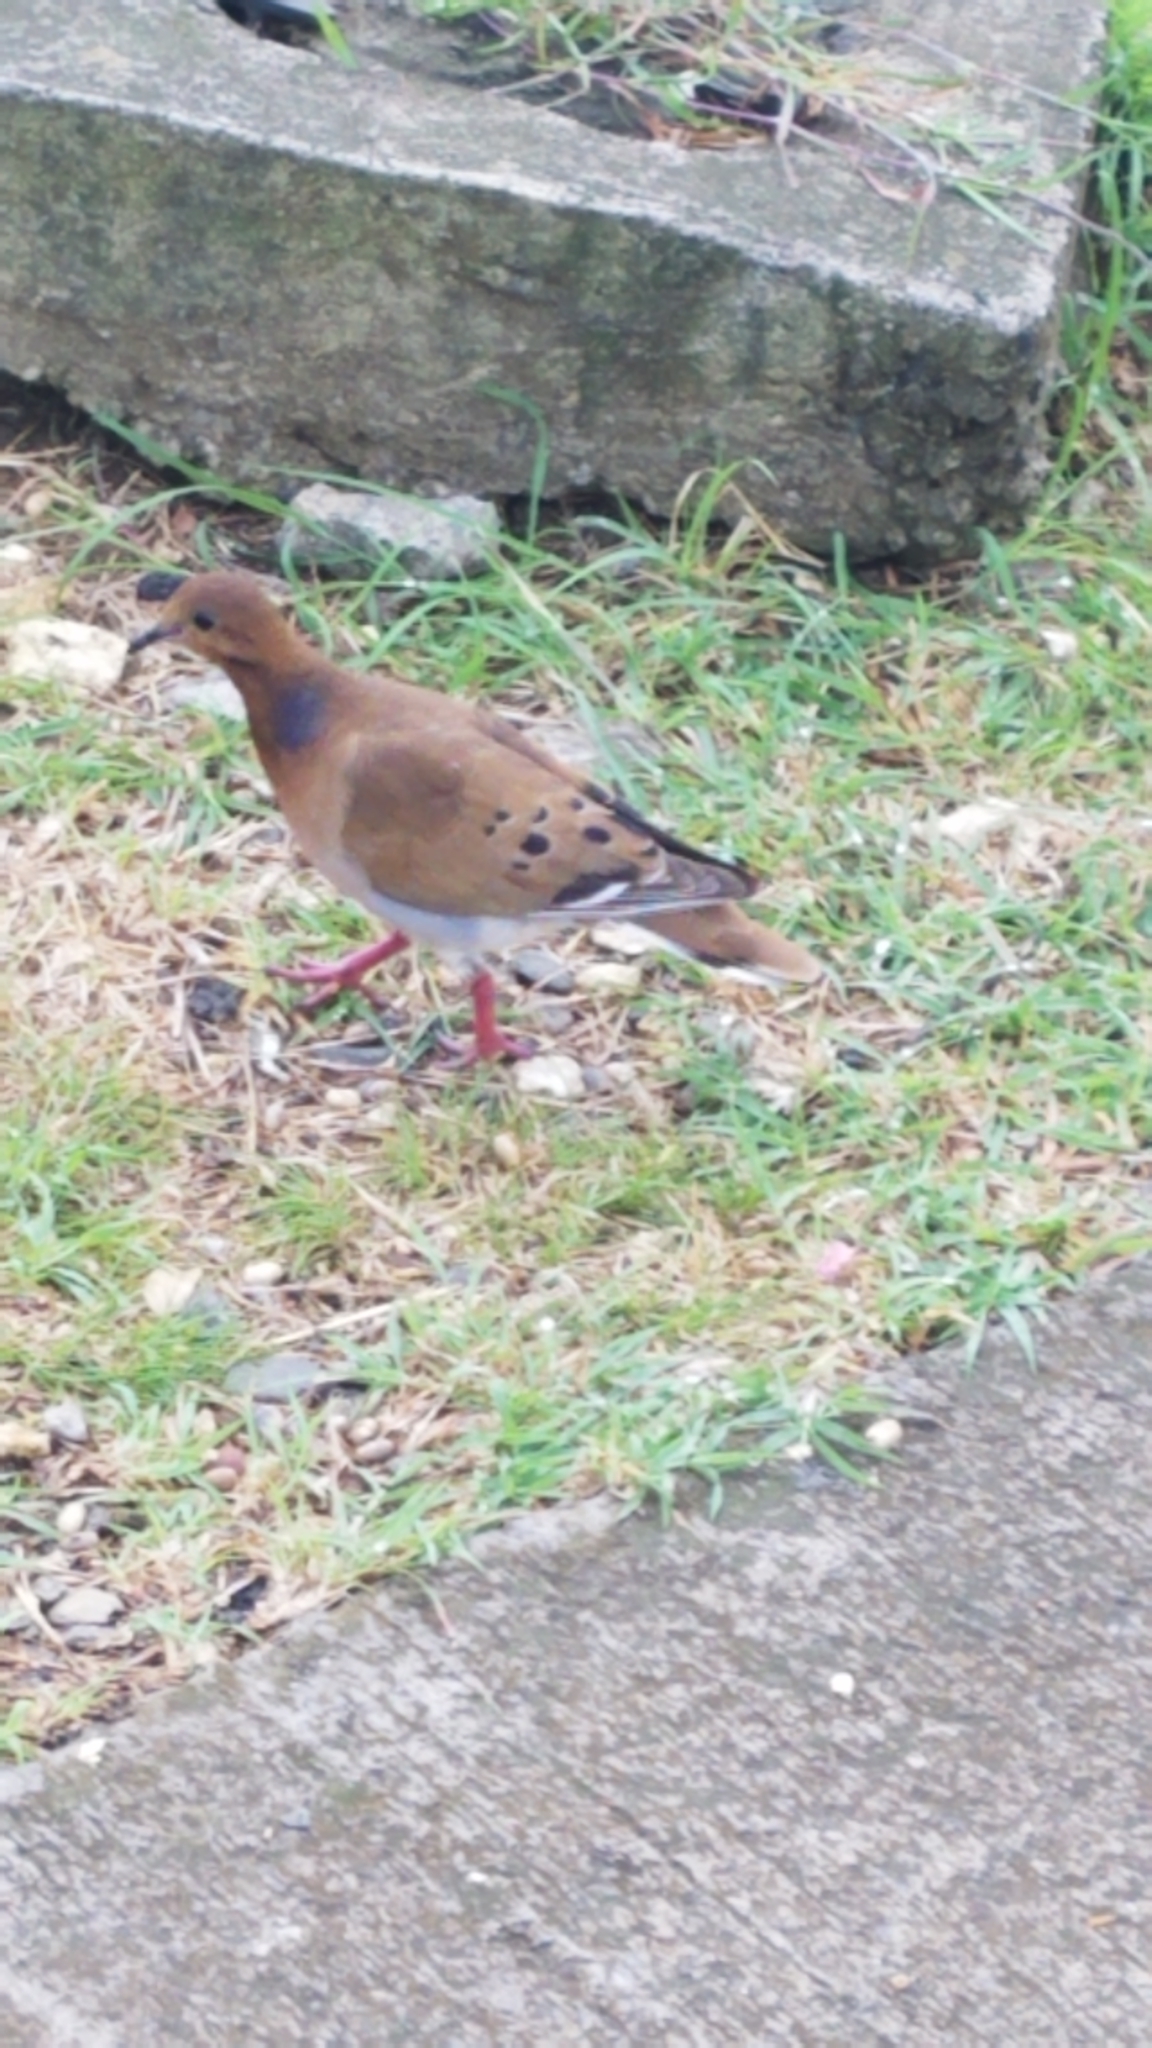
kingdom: Animalia
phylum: Chordata
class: Aves
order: Columbiformes
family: Columbidae
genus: Zenaida
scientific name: Zenaida aurita
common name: Zenaida dove
